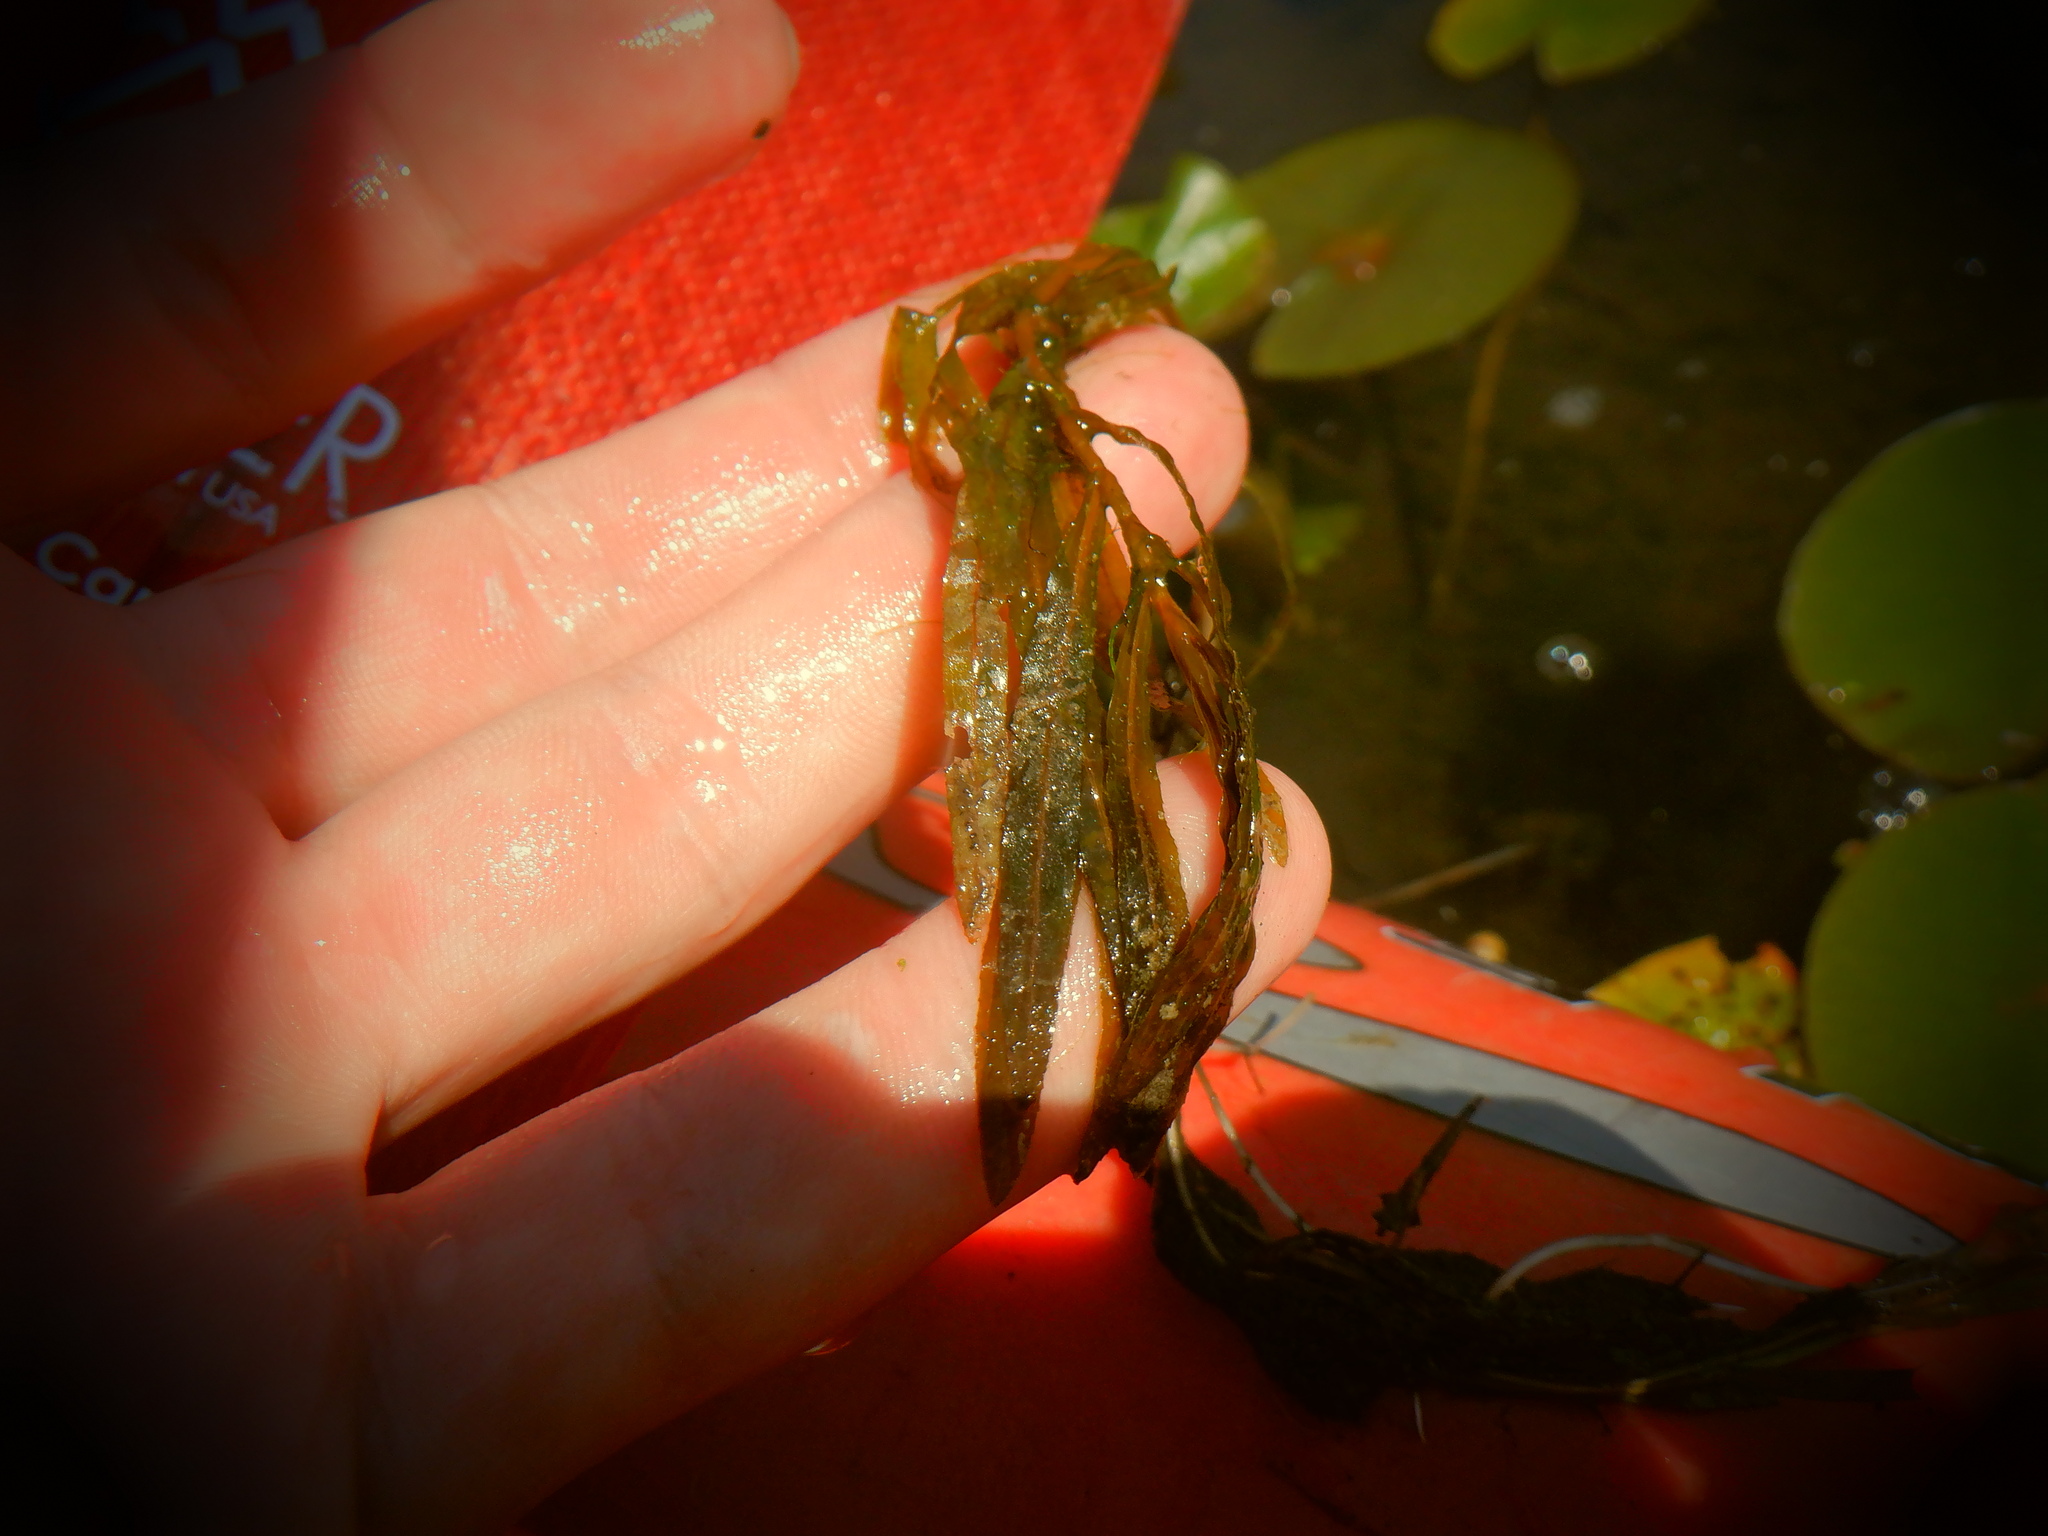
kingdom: Plantae
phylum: Tracheophyta
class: Liliopsida
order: Alismatales
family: Potamogetonaceae
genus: Potamogeton
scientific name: Potamogeton crispus
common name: Curled pondweed
